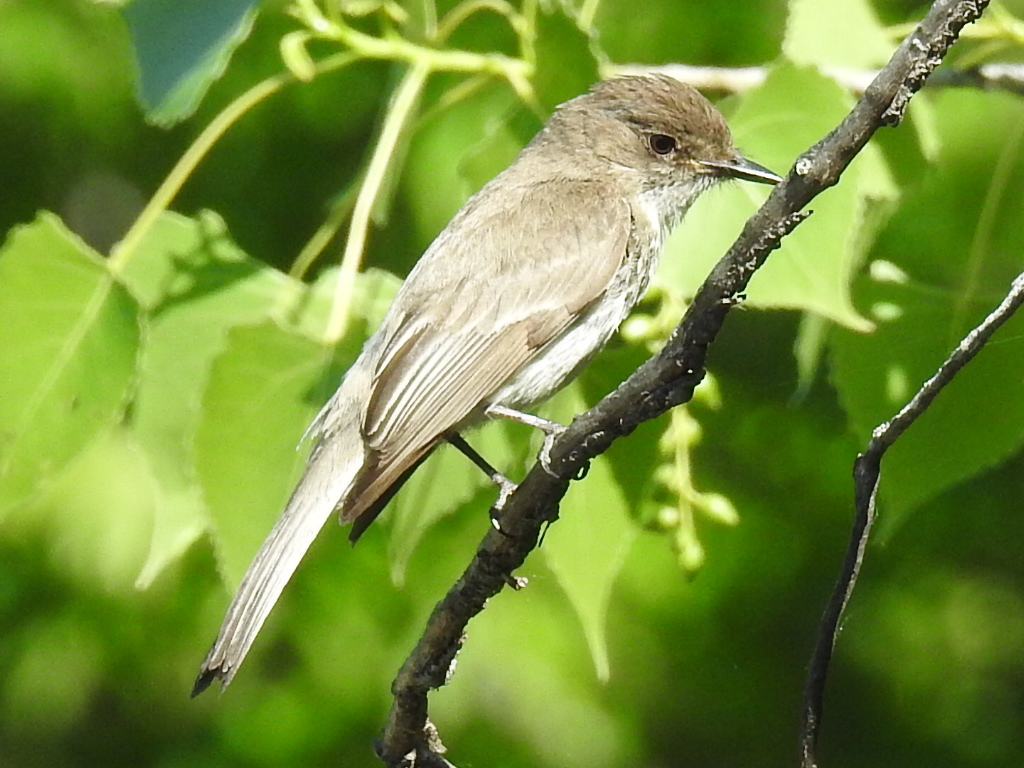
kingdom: Animalia
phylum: Chordata
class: Aves
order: Passeriformes
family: Tyrannidae
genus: Sayornis
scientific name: Sayornis phoebe
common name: Eastern phoebe
